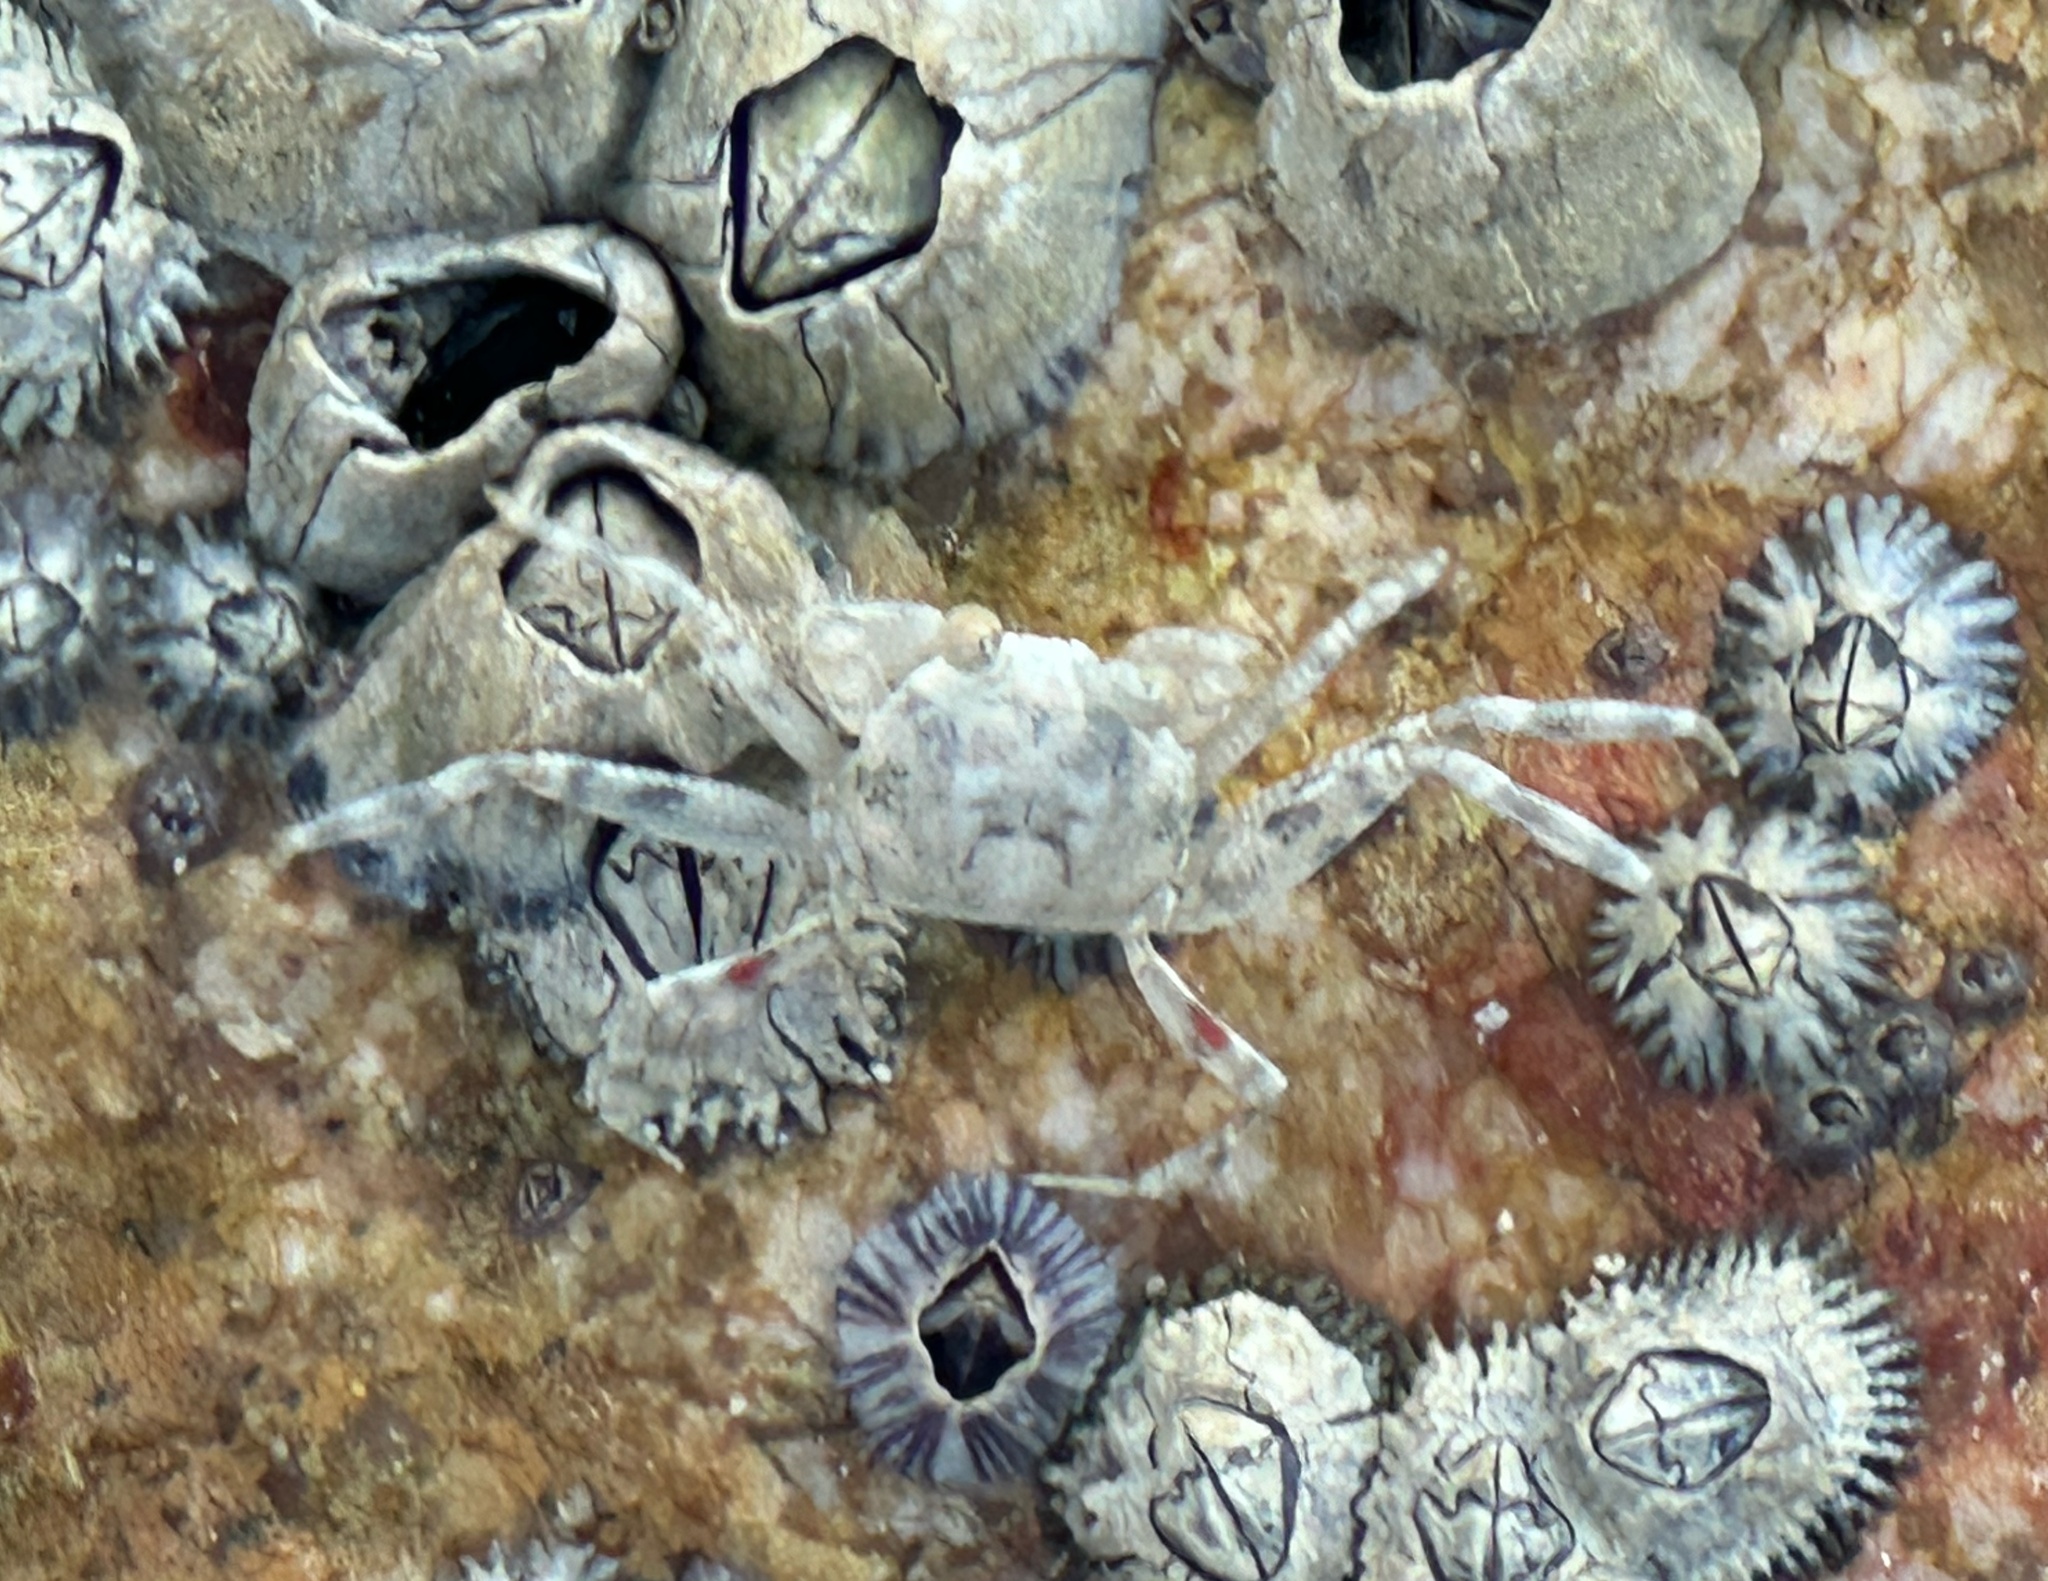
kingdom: Animalia
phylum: Arthropoda
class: Malacostraca
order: Decapoda
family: Ocypodidae
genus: Ocypode
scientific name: Ocypode
